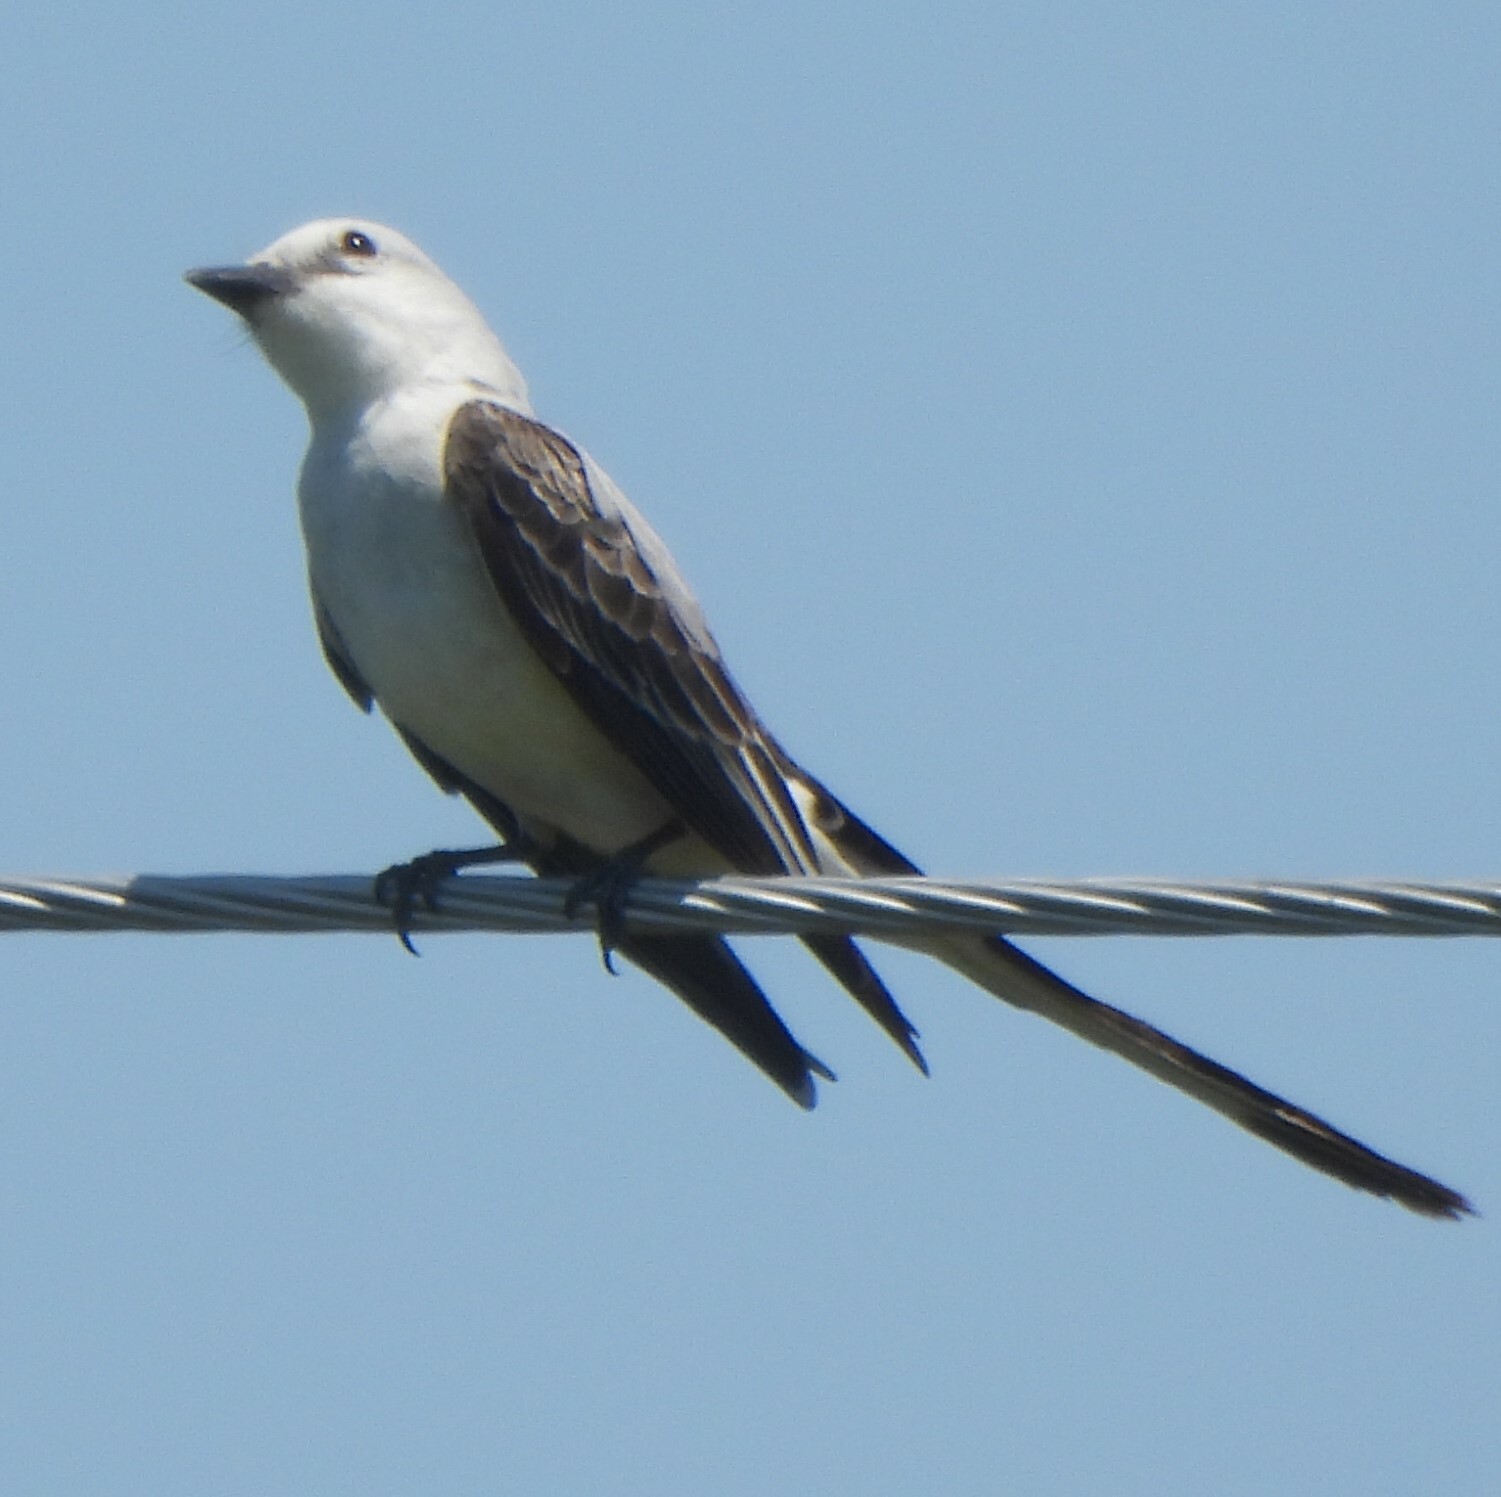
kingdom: Animalia
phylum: Chordata
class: Aves
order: Passeriformes
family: Tyrannidae
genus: Tyrannus
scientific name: Tyrannus forficatus
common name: Scissor-tailed flycatcher
